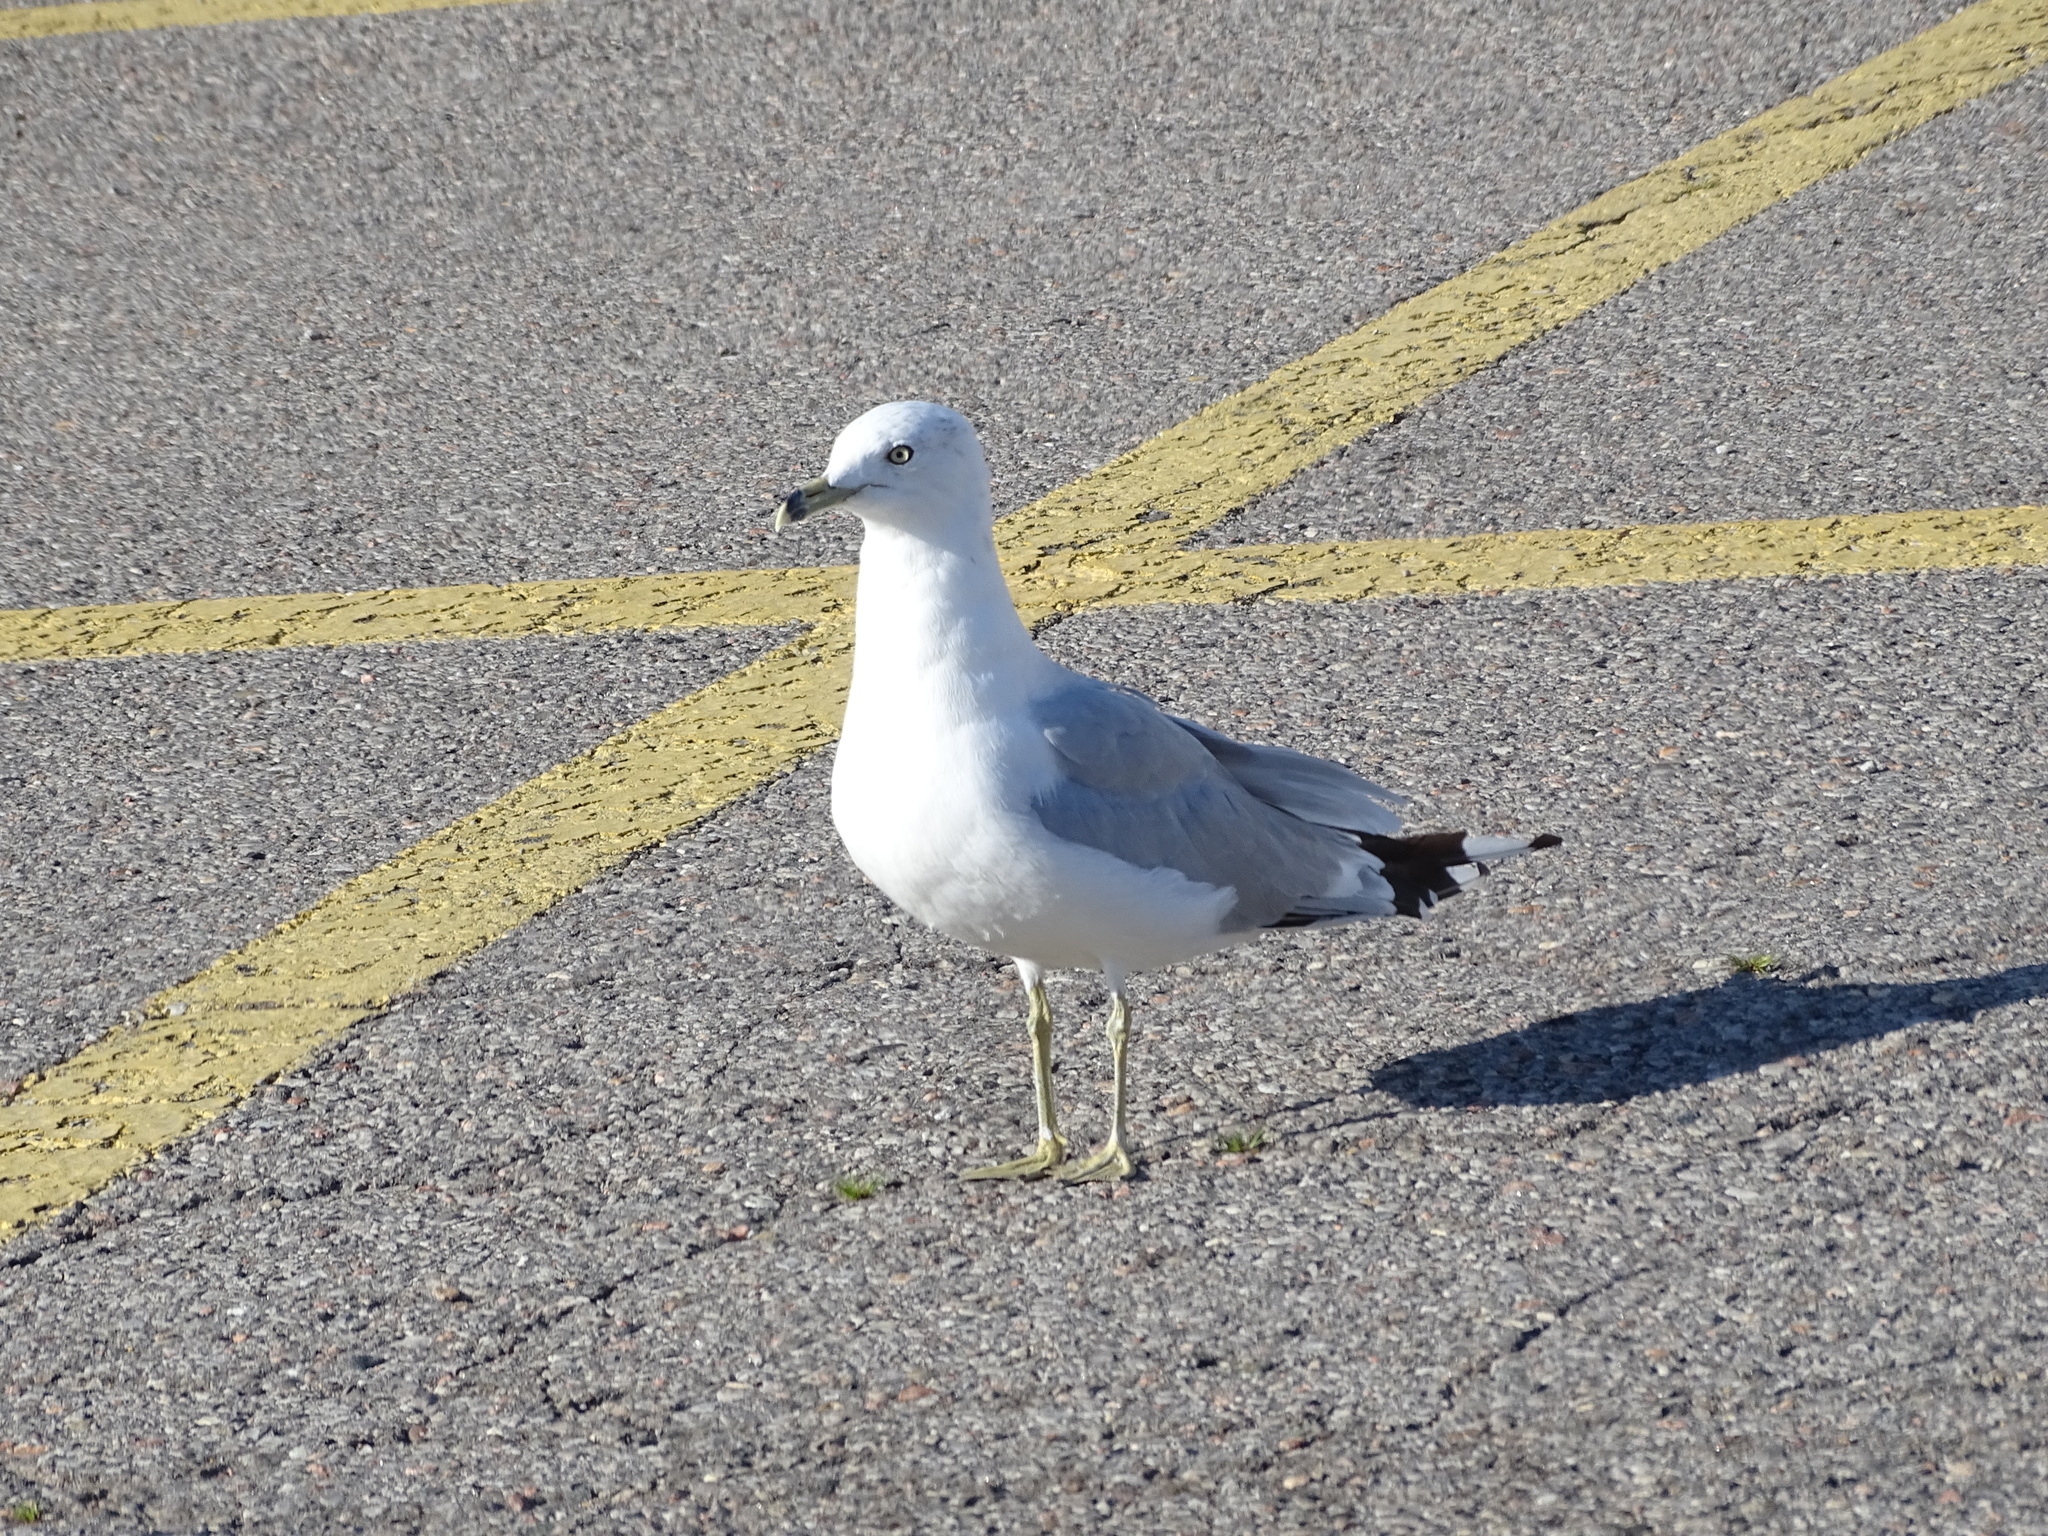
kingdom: Animalia
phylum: Chordata
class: Aves
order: Charadriiformes
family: Laridae
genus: Larus
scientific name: Larus delawarensis
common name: Ring-billed gull
